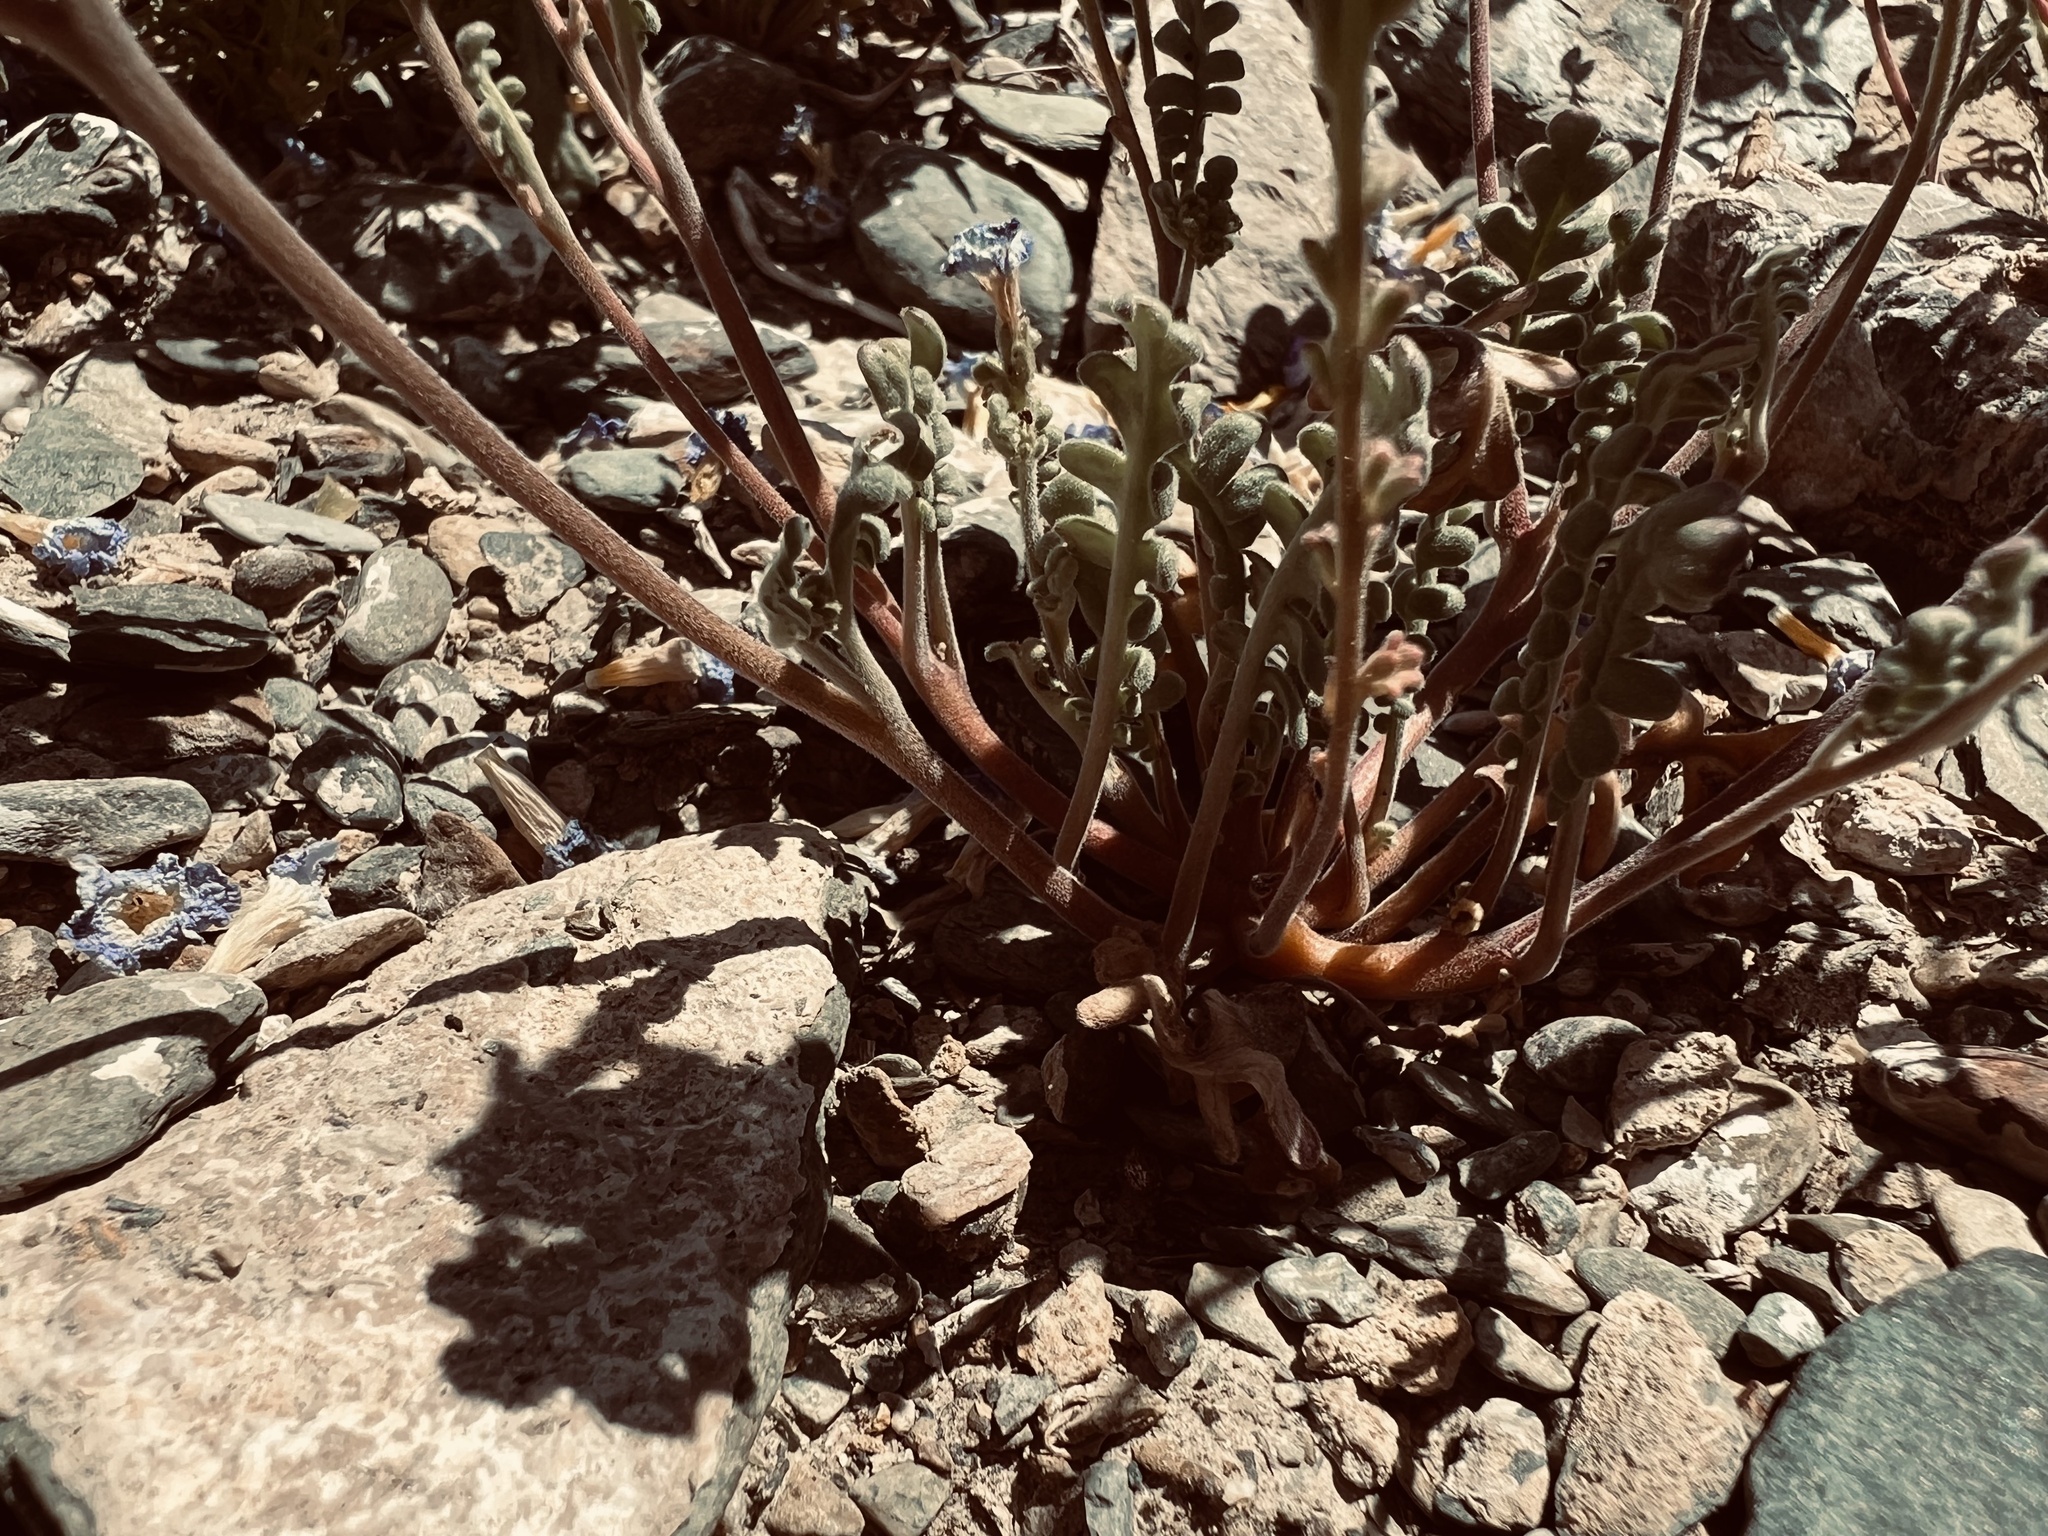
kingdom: Plantae
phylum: Tracheophyta
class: Magnoliopsida
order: Boraginales
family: Hydrophyllaceae
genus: Phacelia
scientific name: Phacelia fremontii
